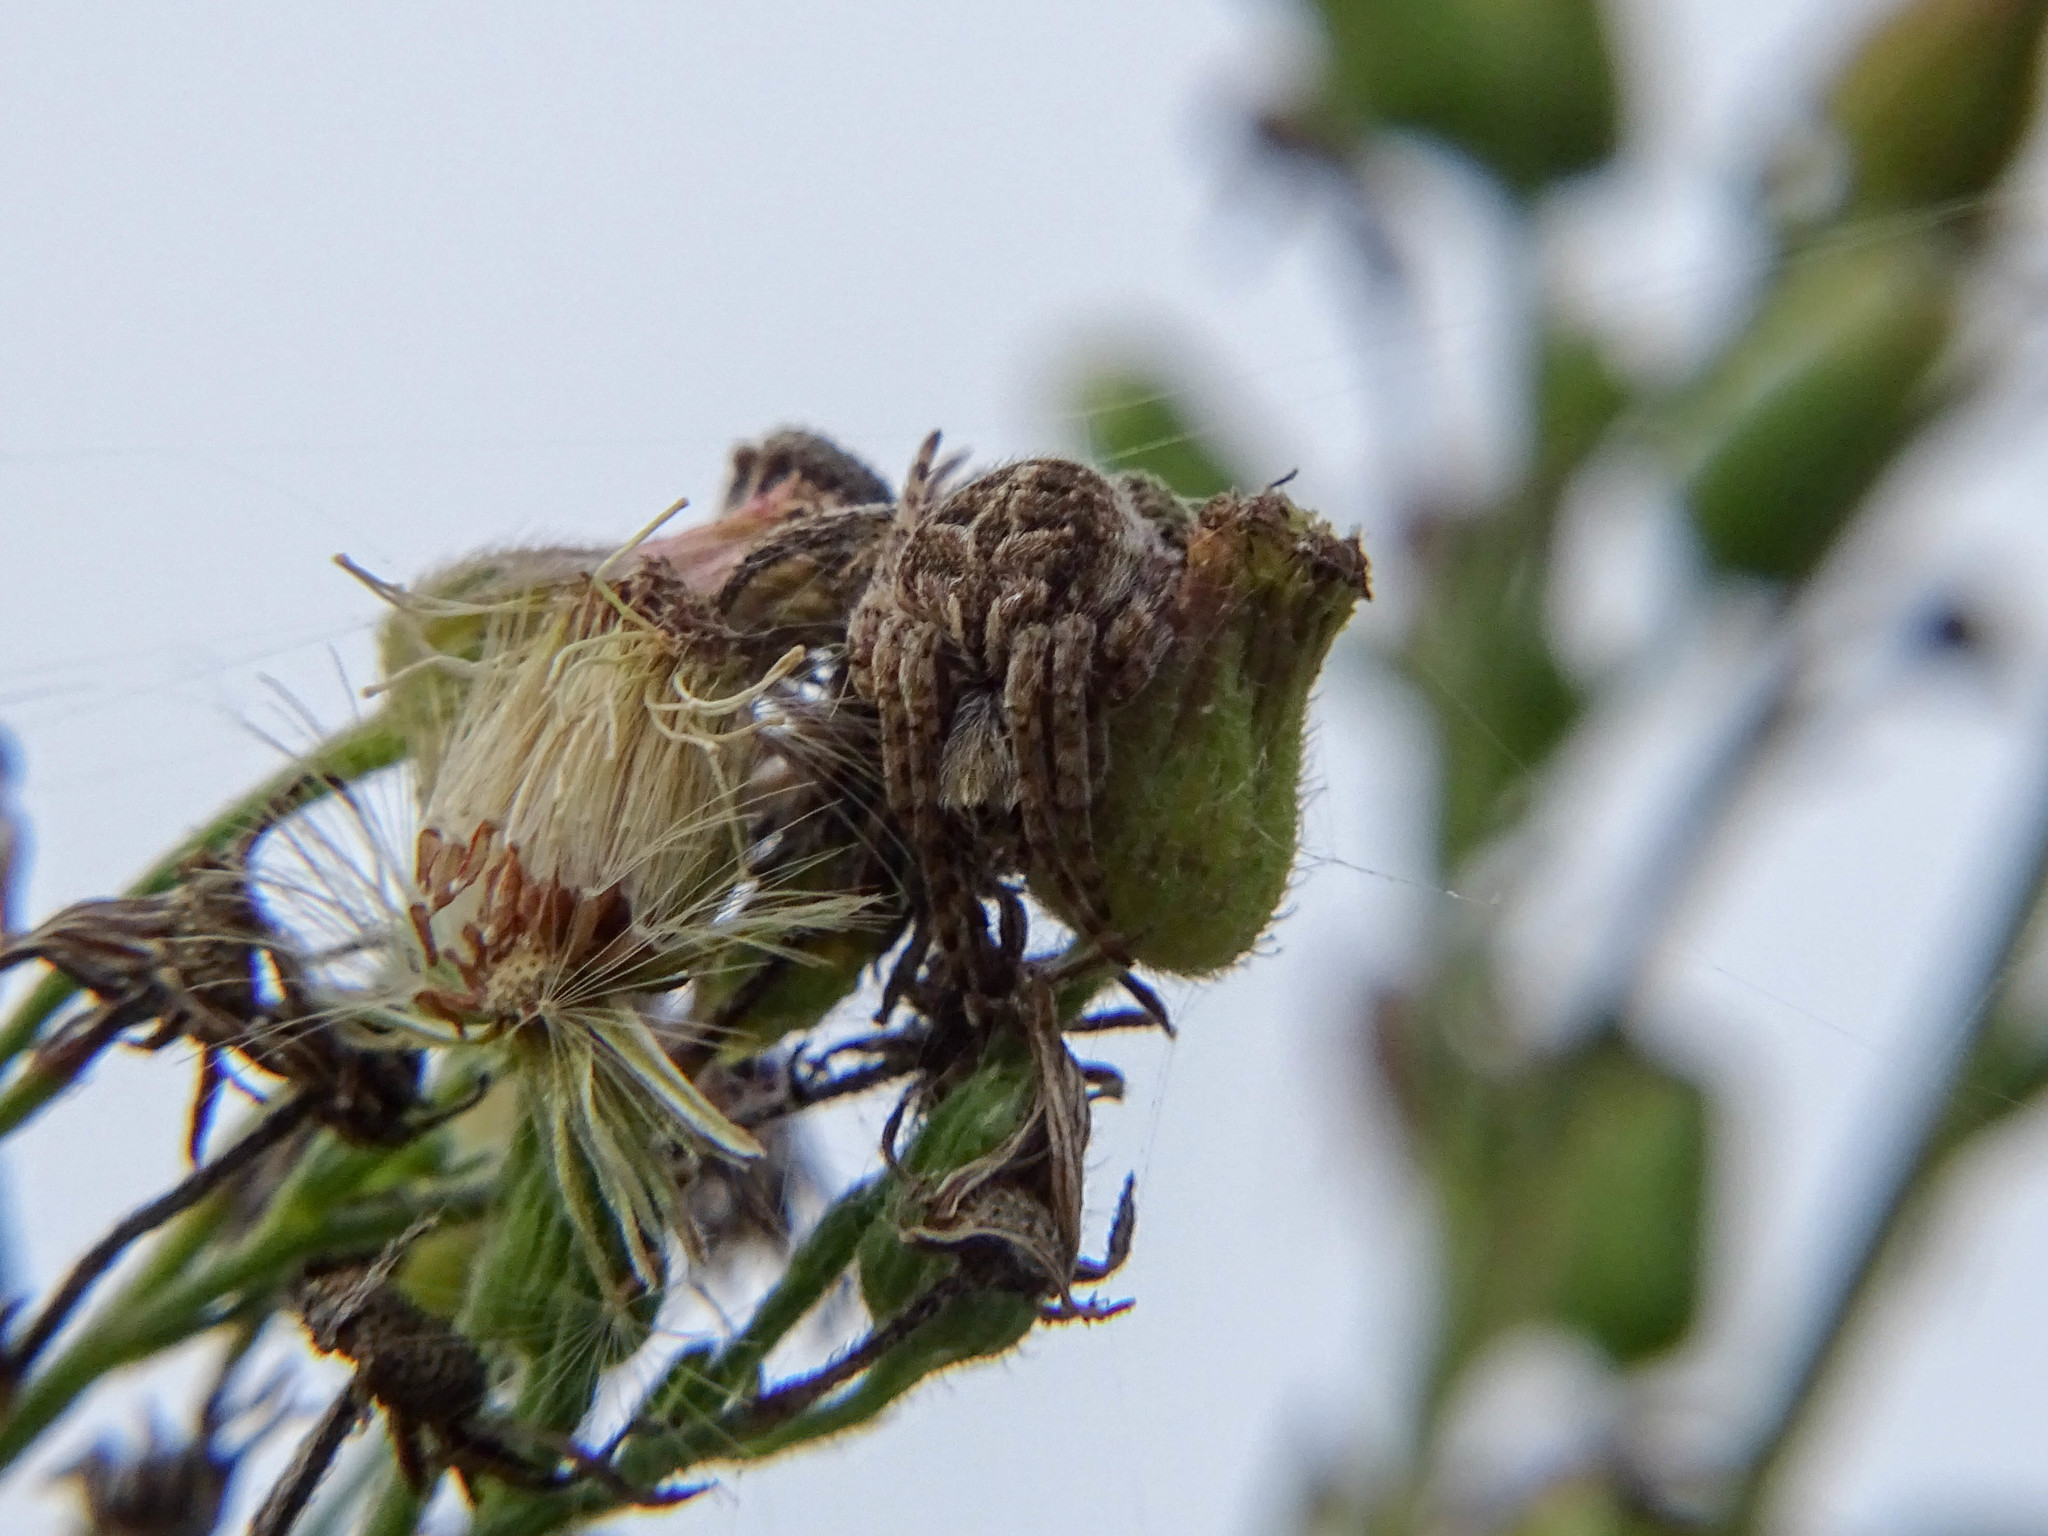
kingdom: Animalia
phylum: Arthropoda
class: Arachnida
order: Araneae
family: Araneidae
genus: Agalenatea
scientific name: Agalenatea redii
